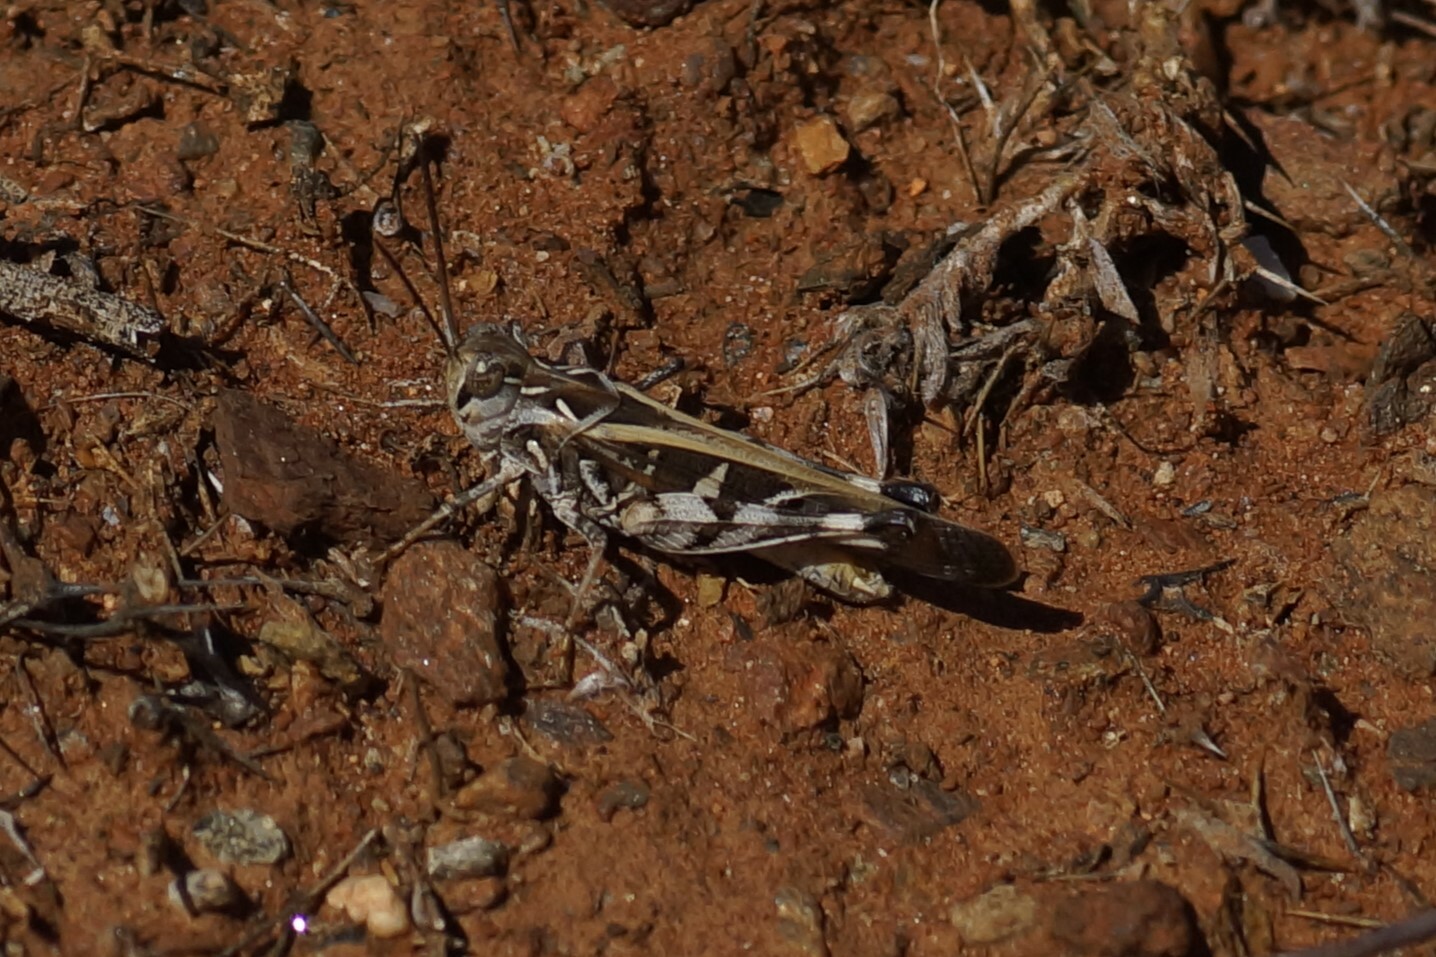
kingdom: Animalia
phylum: Arthropoda
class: Insecta
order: Orthoptera
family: Acrididae
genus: Oedaleus
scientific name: Oedaleus australis
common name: Eastern oedaleus
